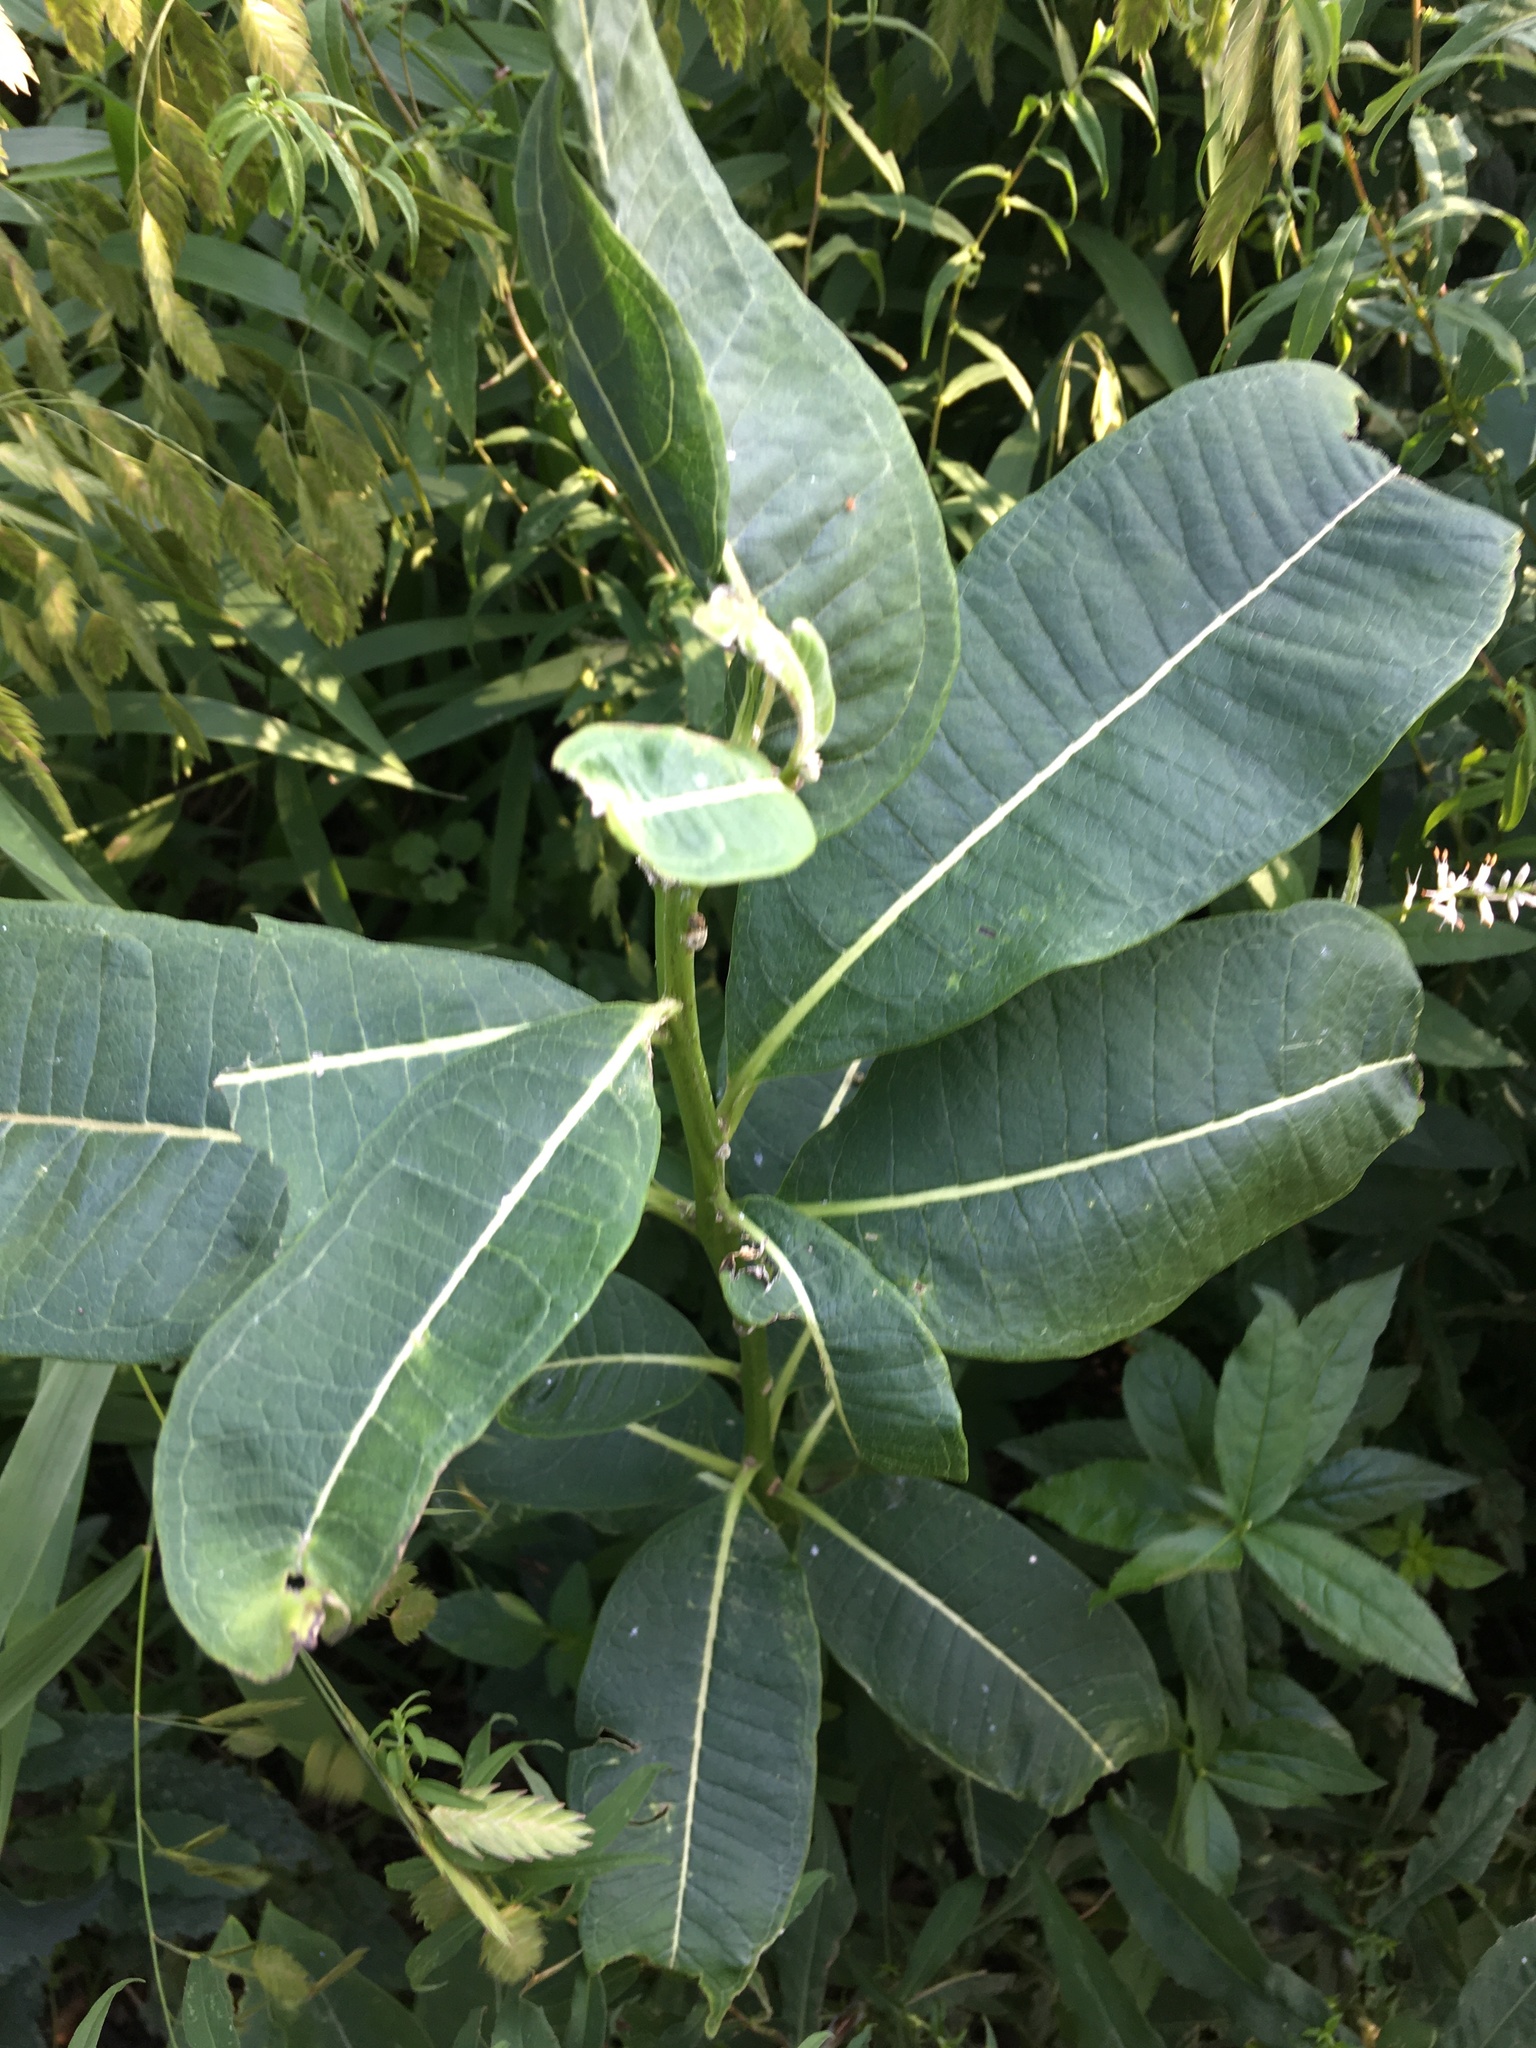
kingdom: Plantae
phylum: Tracheophyta
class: Magnoliopsida
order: Gentianales
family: Apocynaceae
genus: Asclepias
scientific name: Asclepias syriaca
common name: Common milkweed
